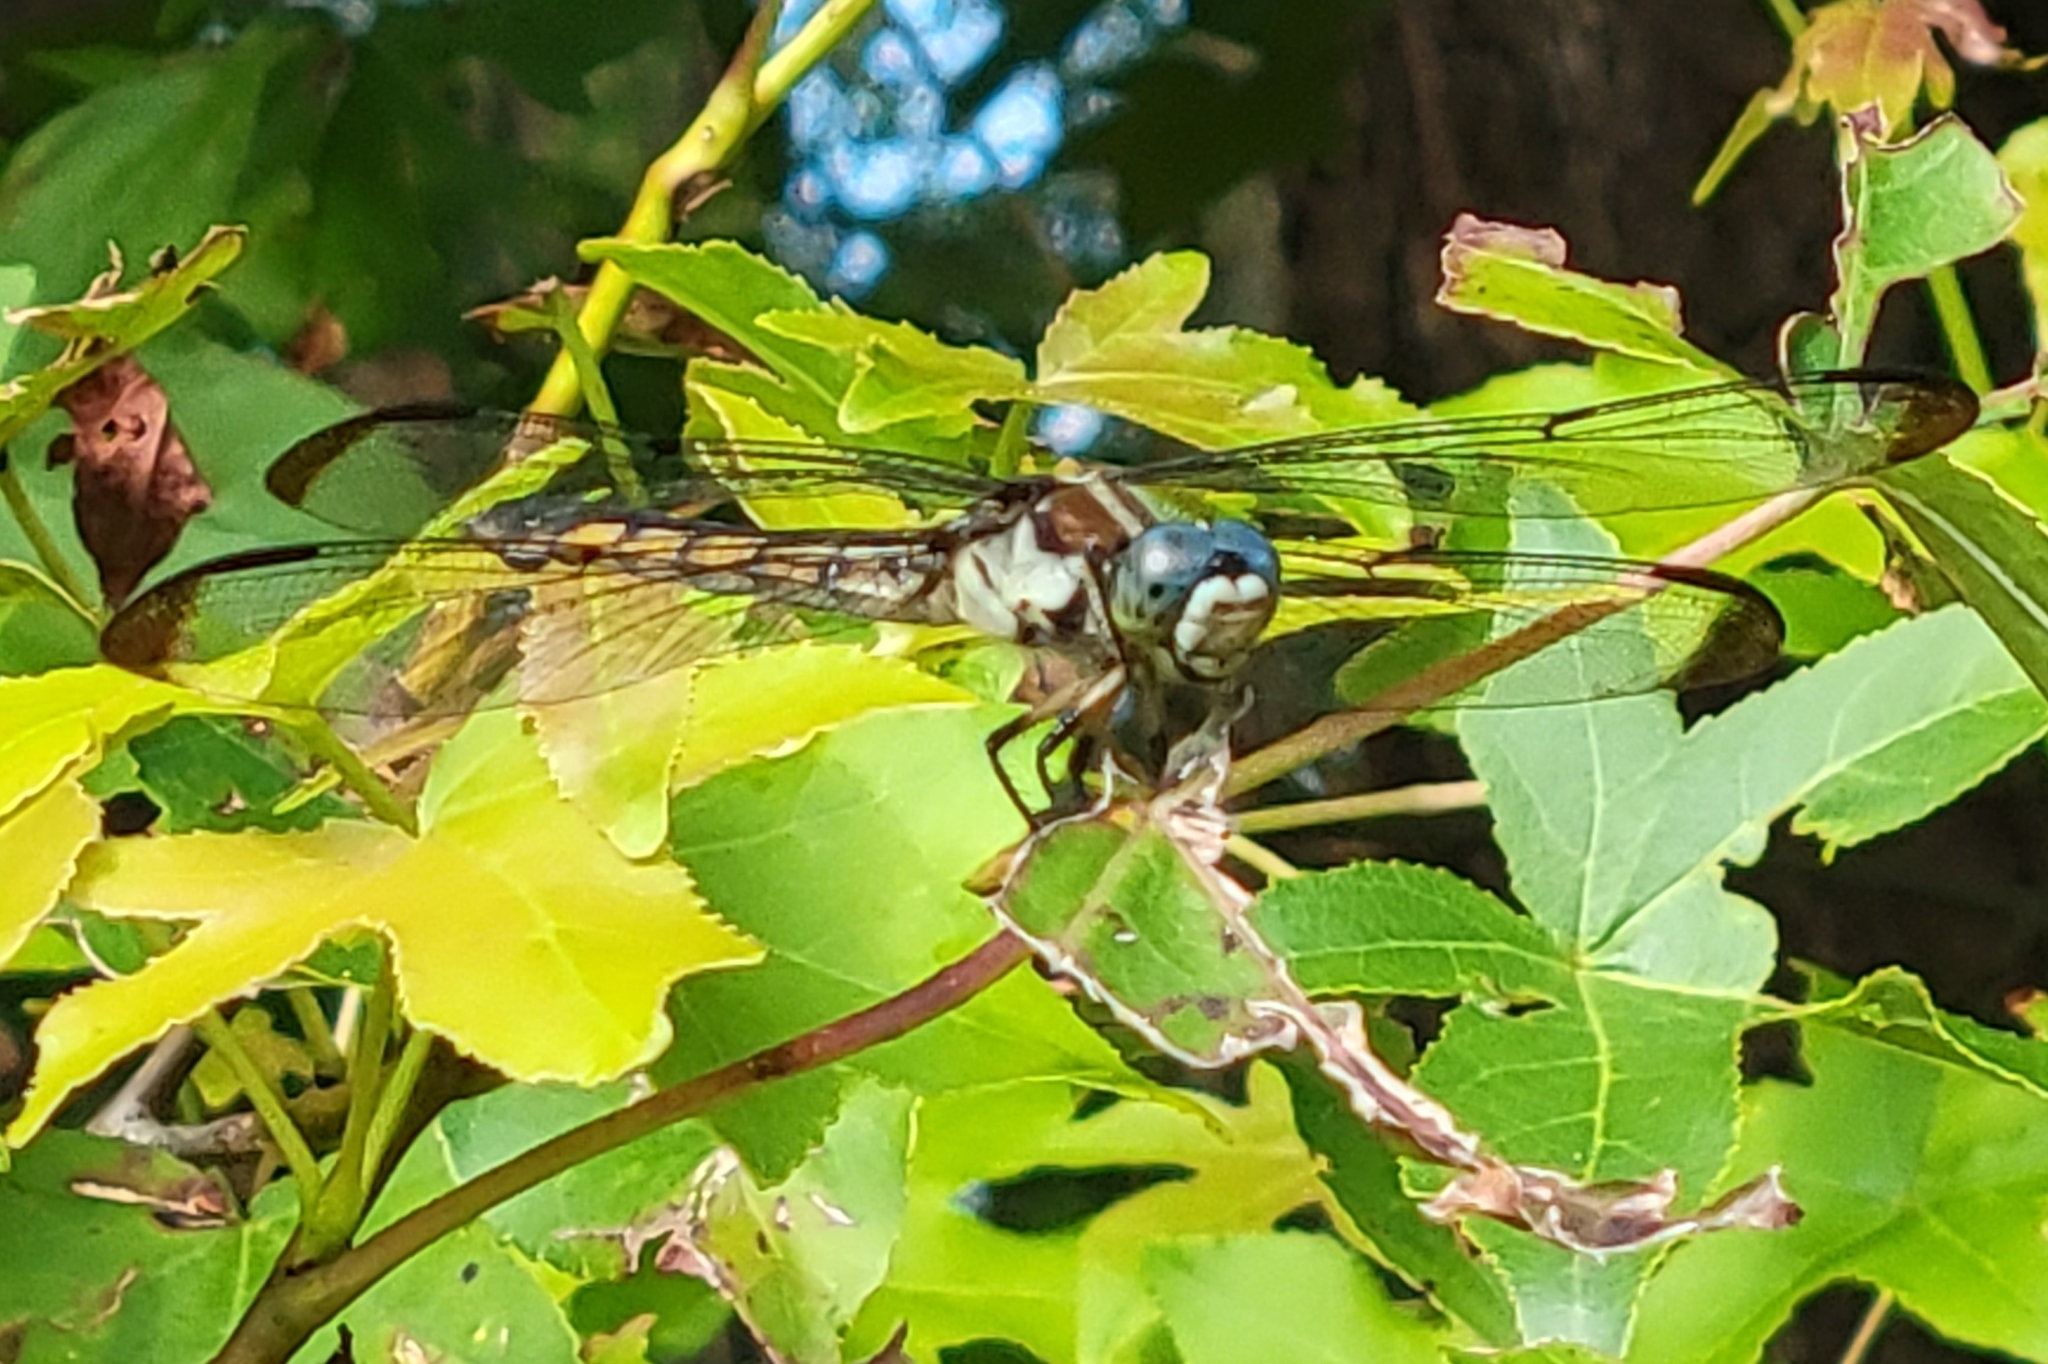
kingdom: Animalia
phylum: Arthropoda
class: Insecta
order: Odonata
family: Libellulidae
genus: Libellula
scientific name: Libellula vibrans
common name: Great blue skimmer
